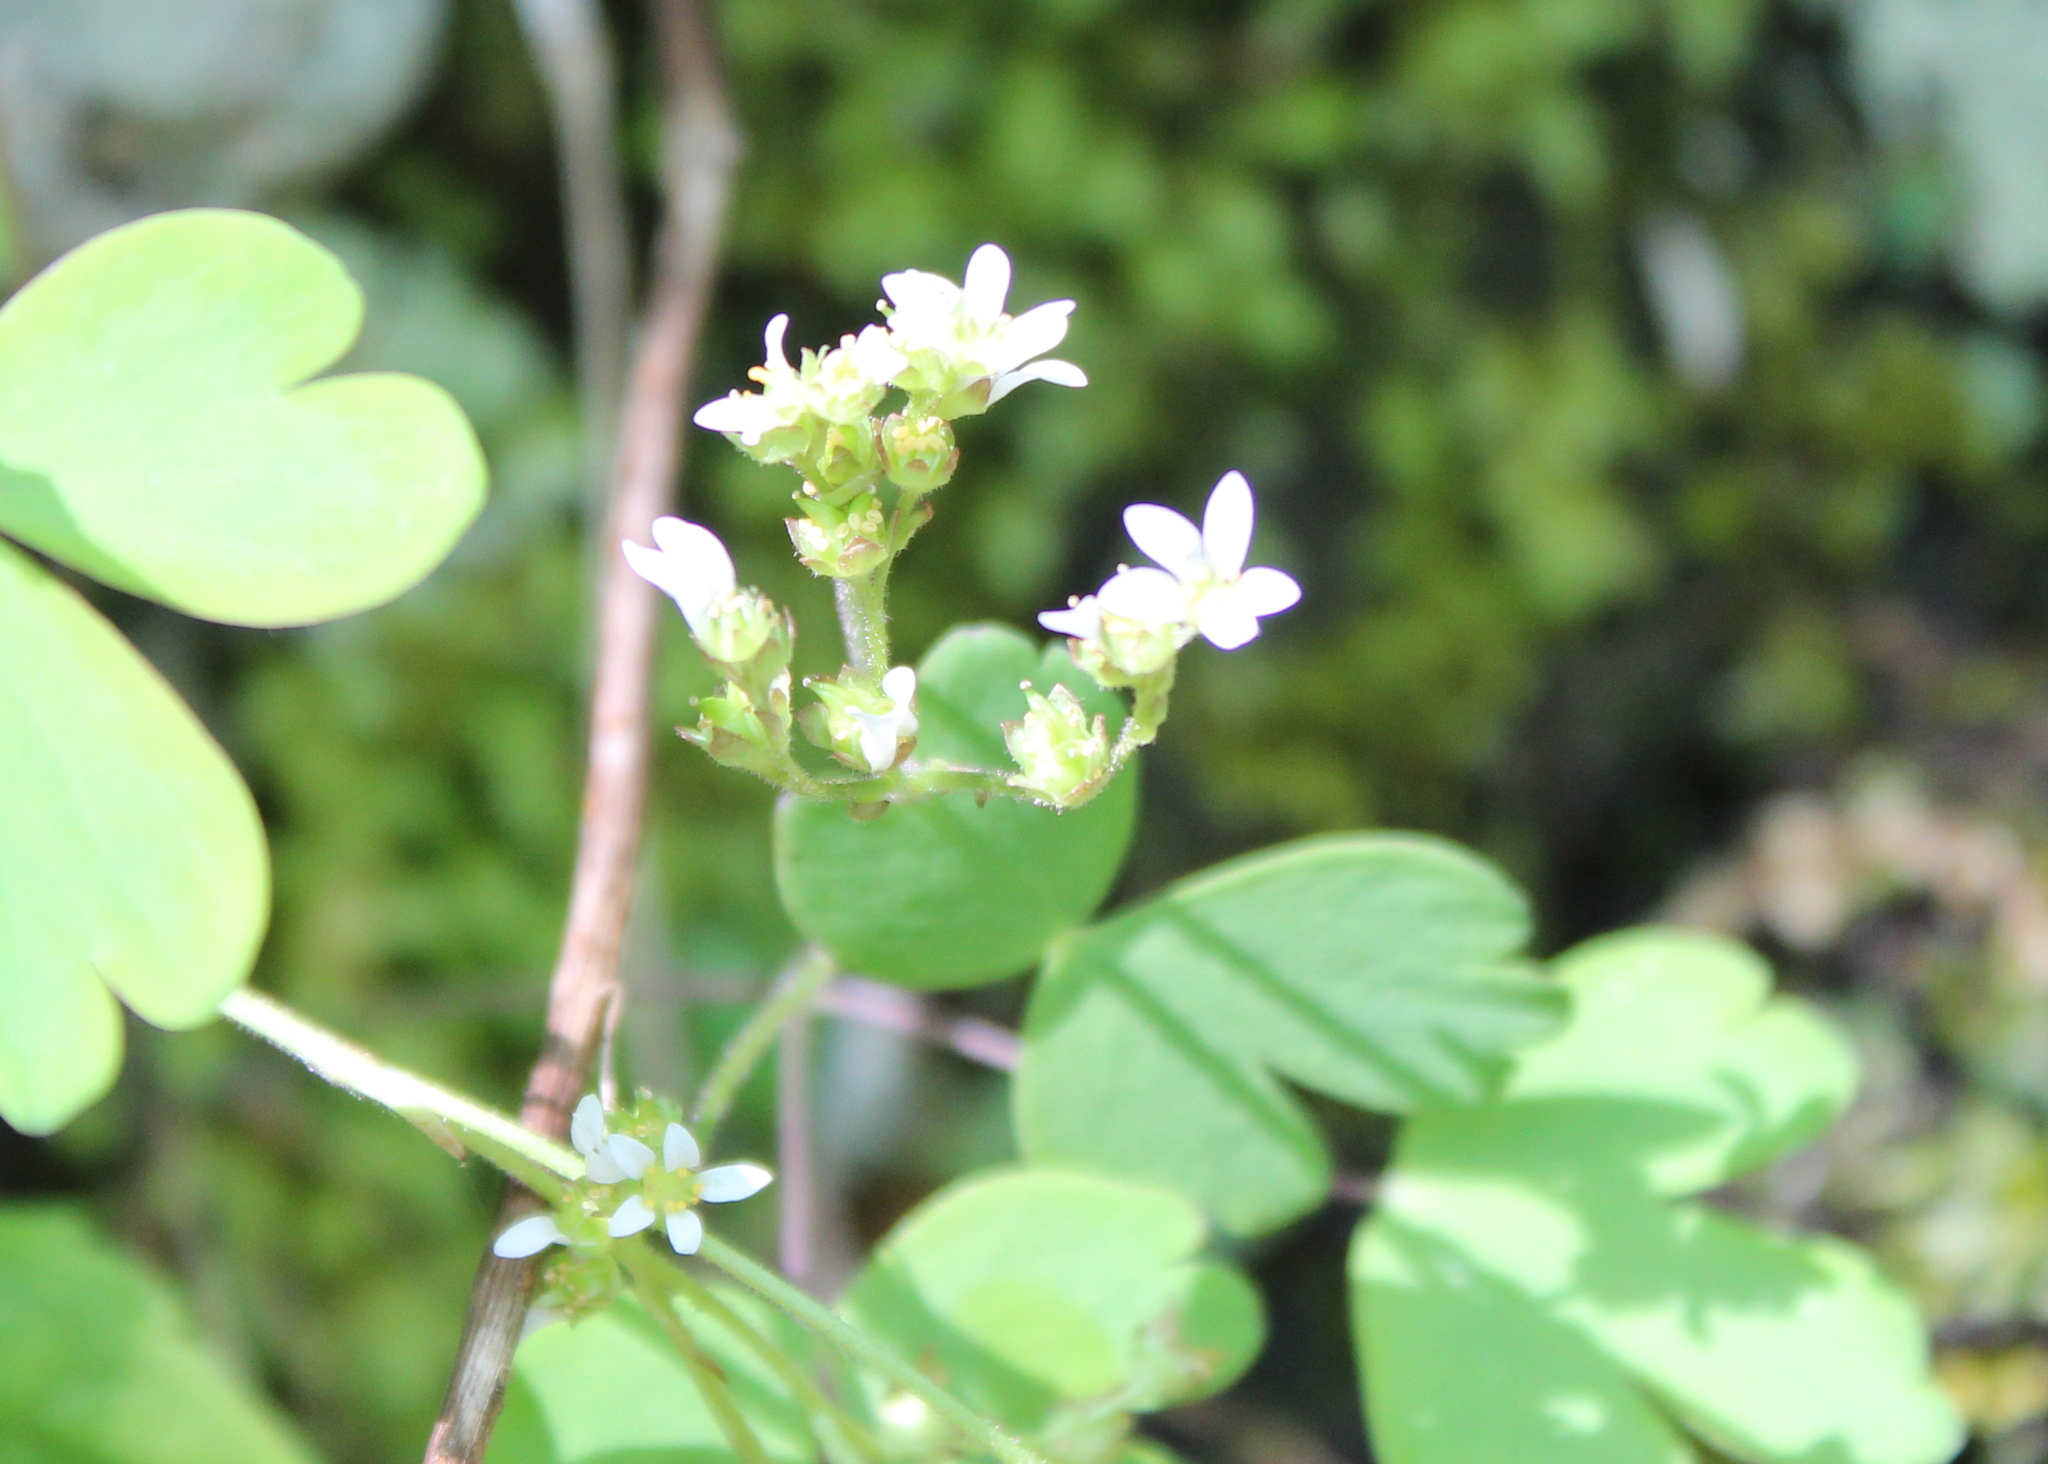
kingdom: Plantae
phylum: Tracheophyta
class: Magnoliopsida
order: Saxifragales
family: Saxifragaceae
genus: Micranthes
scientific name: Micranthes virginiensis
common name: Early saxifrage
